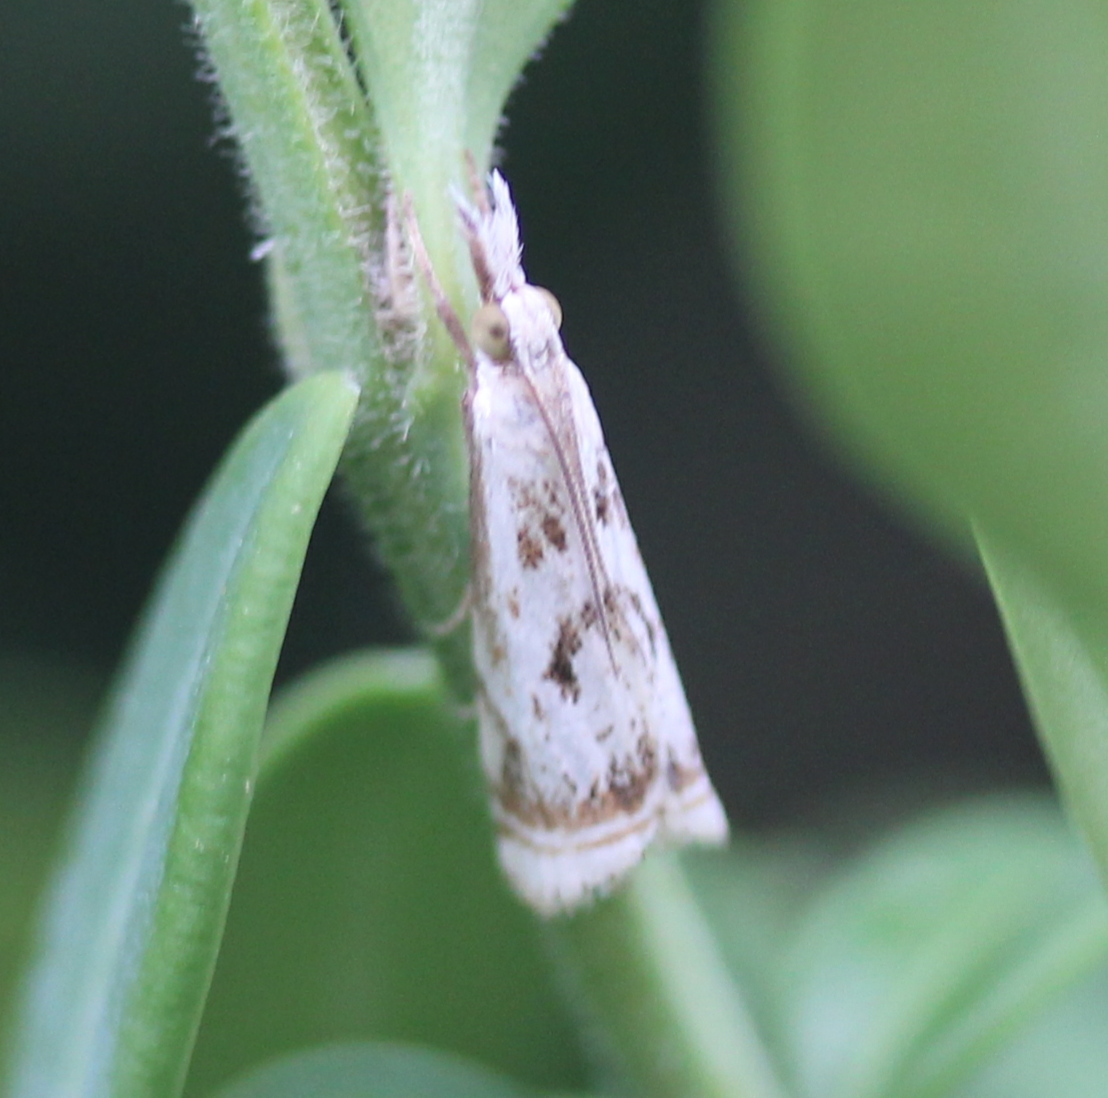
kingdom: Animalia
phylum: Arthropoda
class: Insecta
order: Lepidoptera
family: Crambidae
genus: Microcrambus
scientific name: Microcrambus elegans
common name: Elegant grass-veneer
